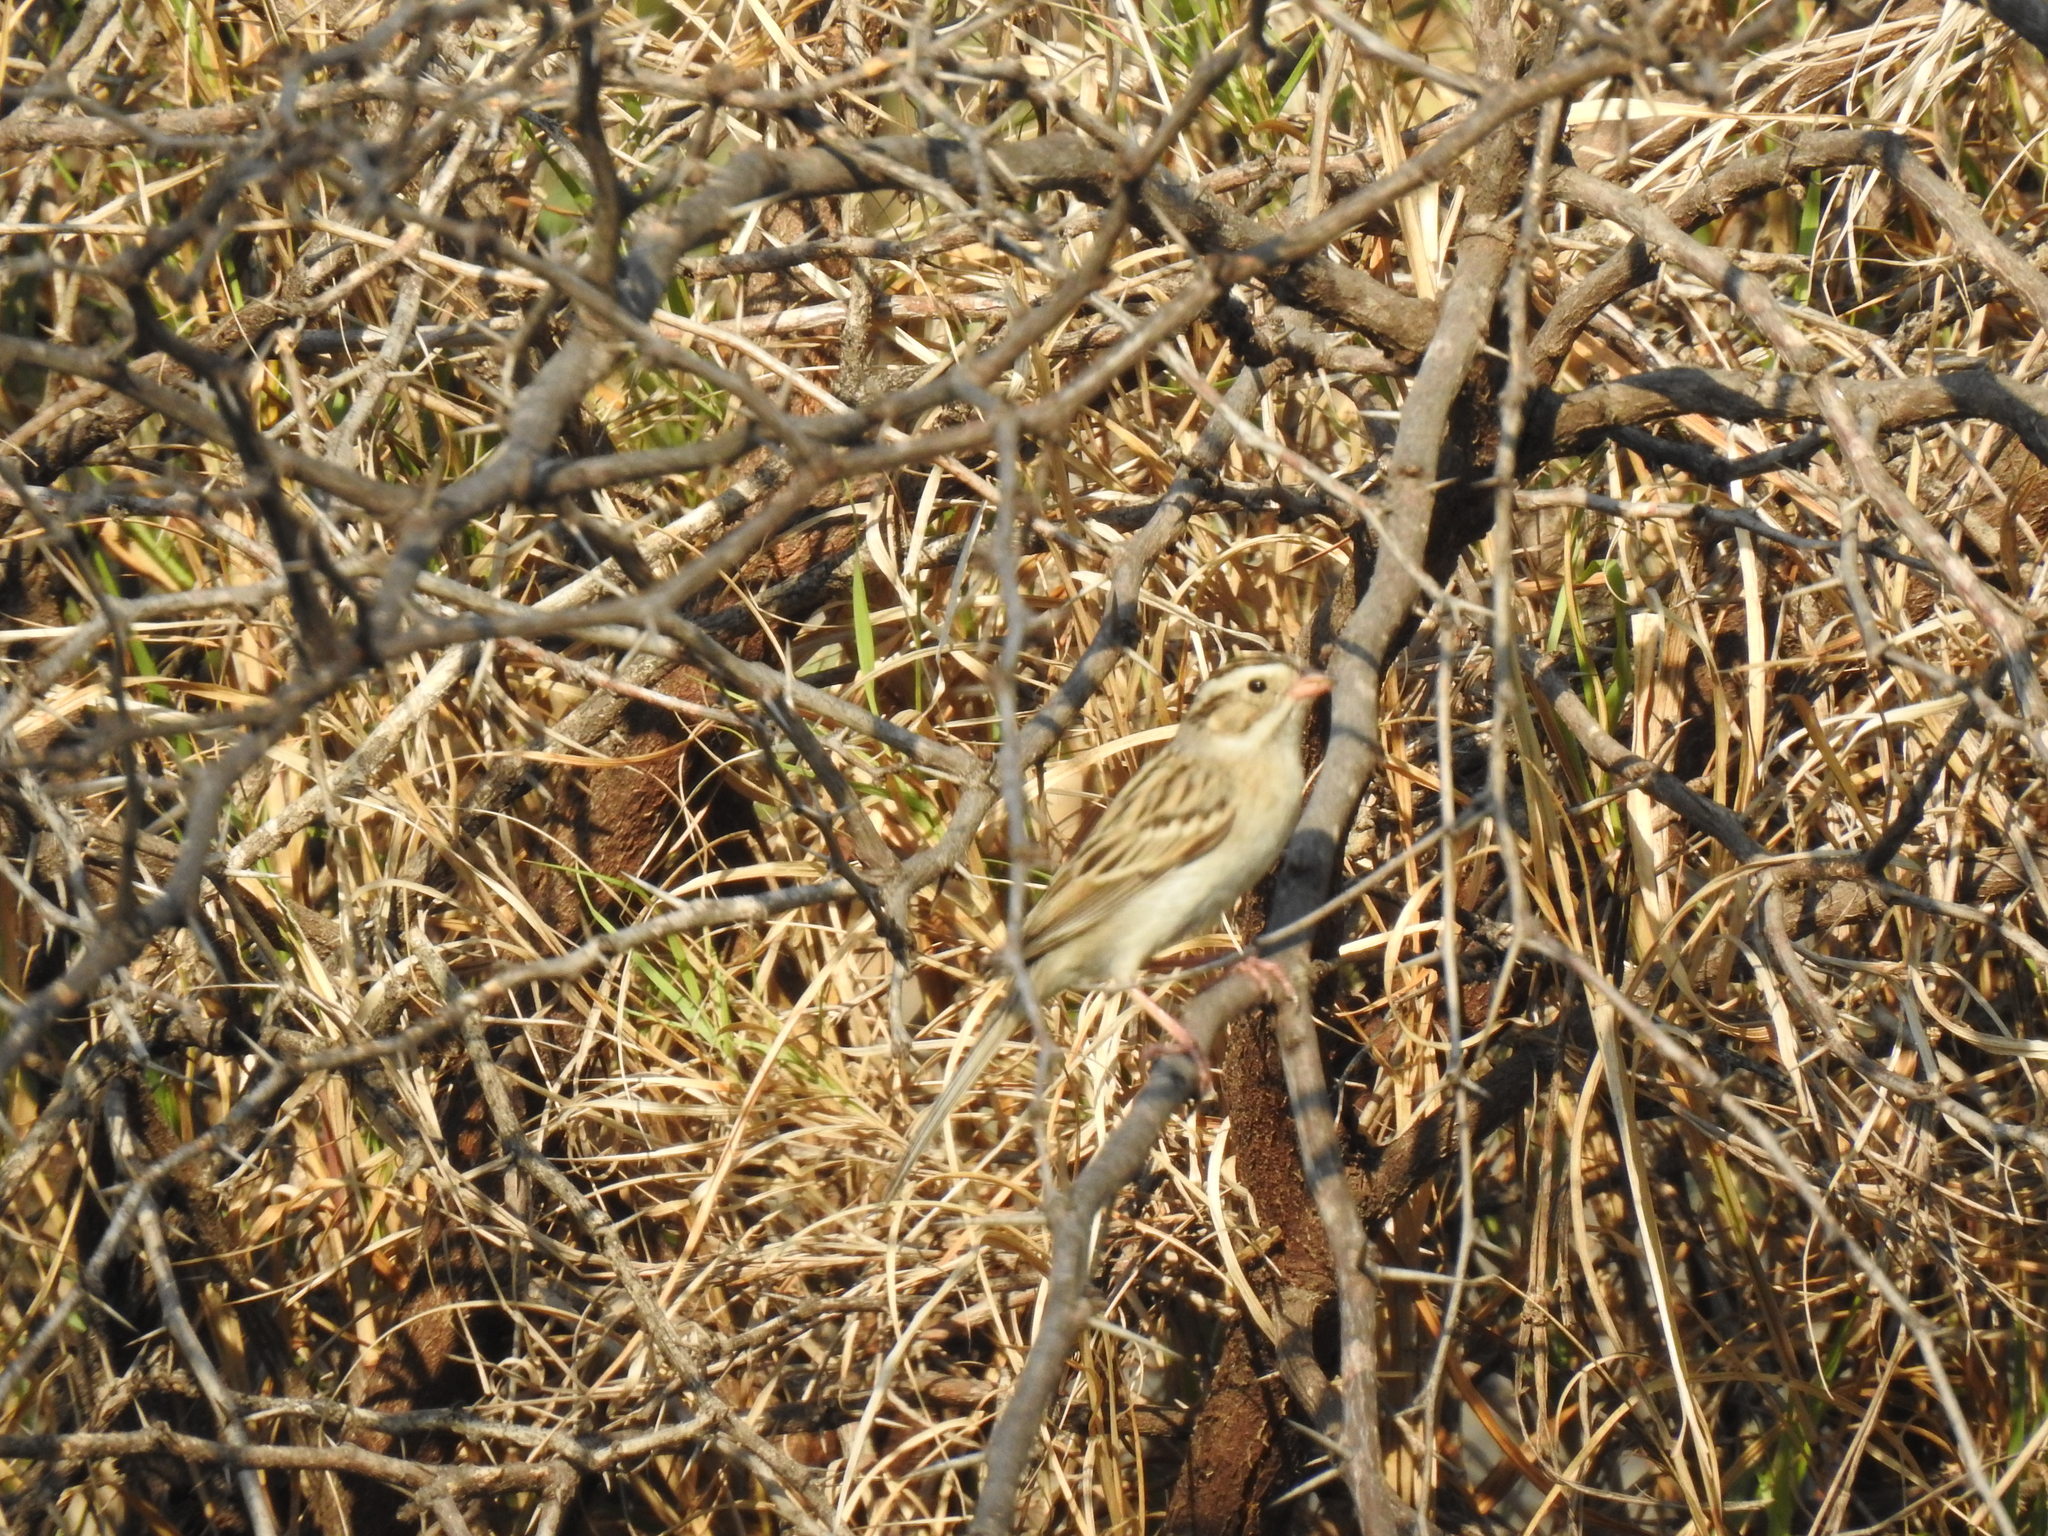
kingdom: Animalia
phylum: Chordata
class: Aves
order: Passeriformes
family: Passerellidae
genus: Spizella
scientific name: Spizella pallida
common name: Clay-colored sparrow
